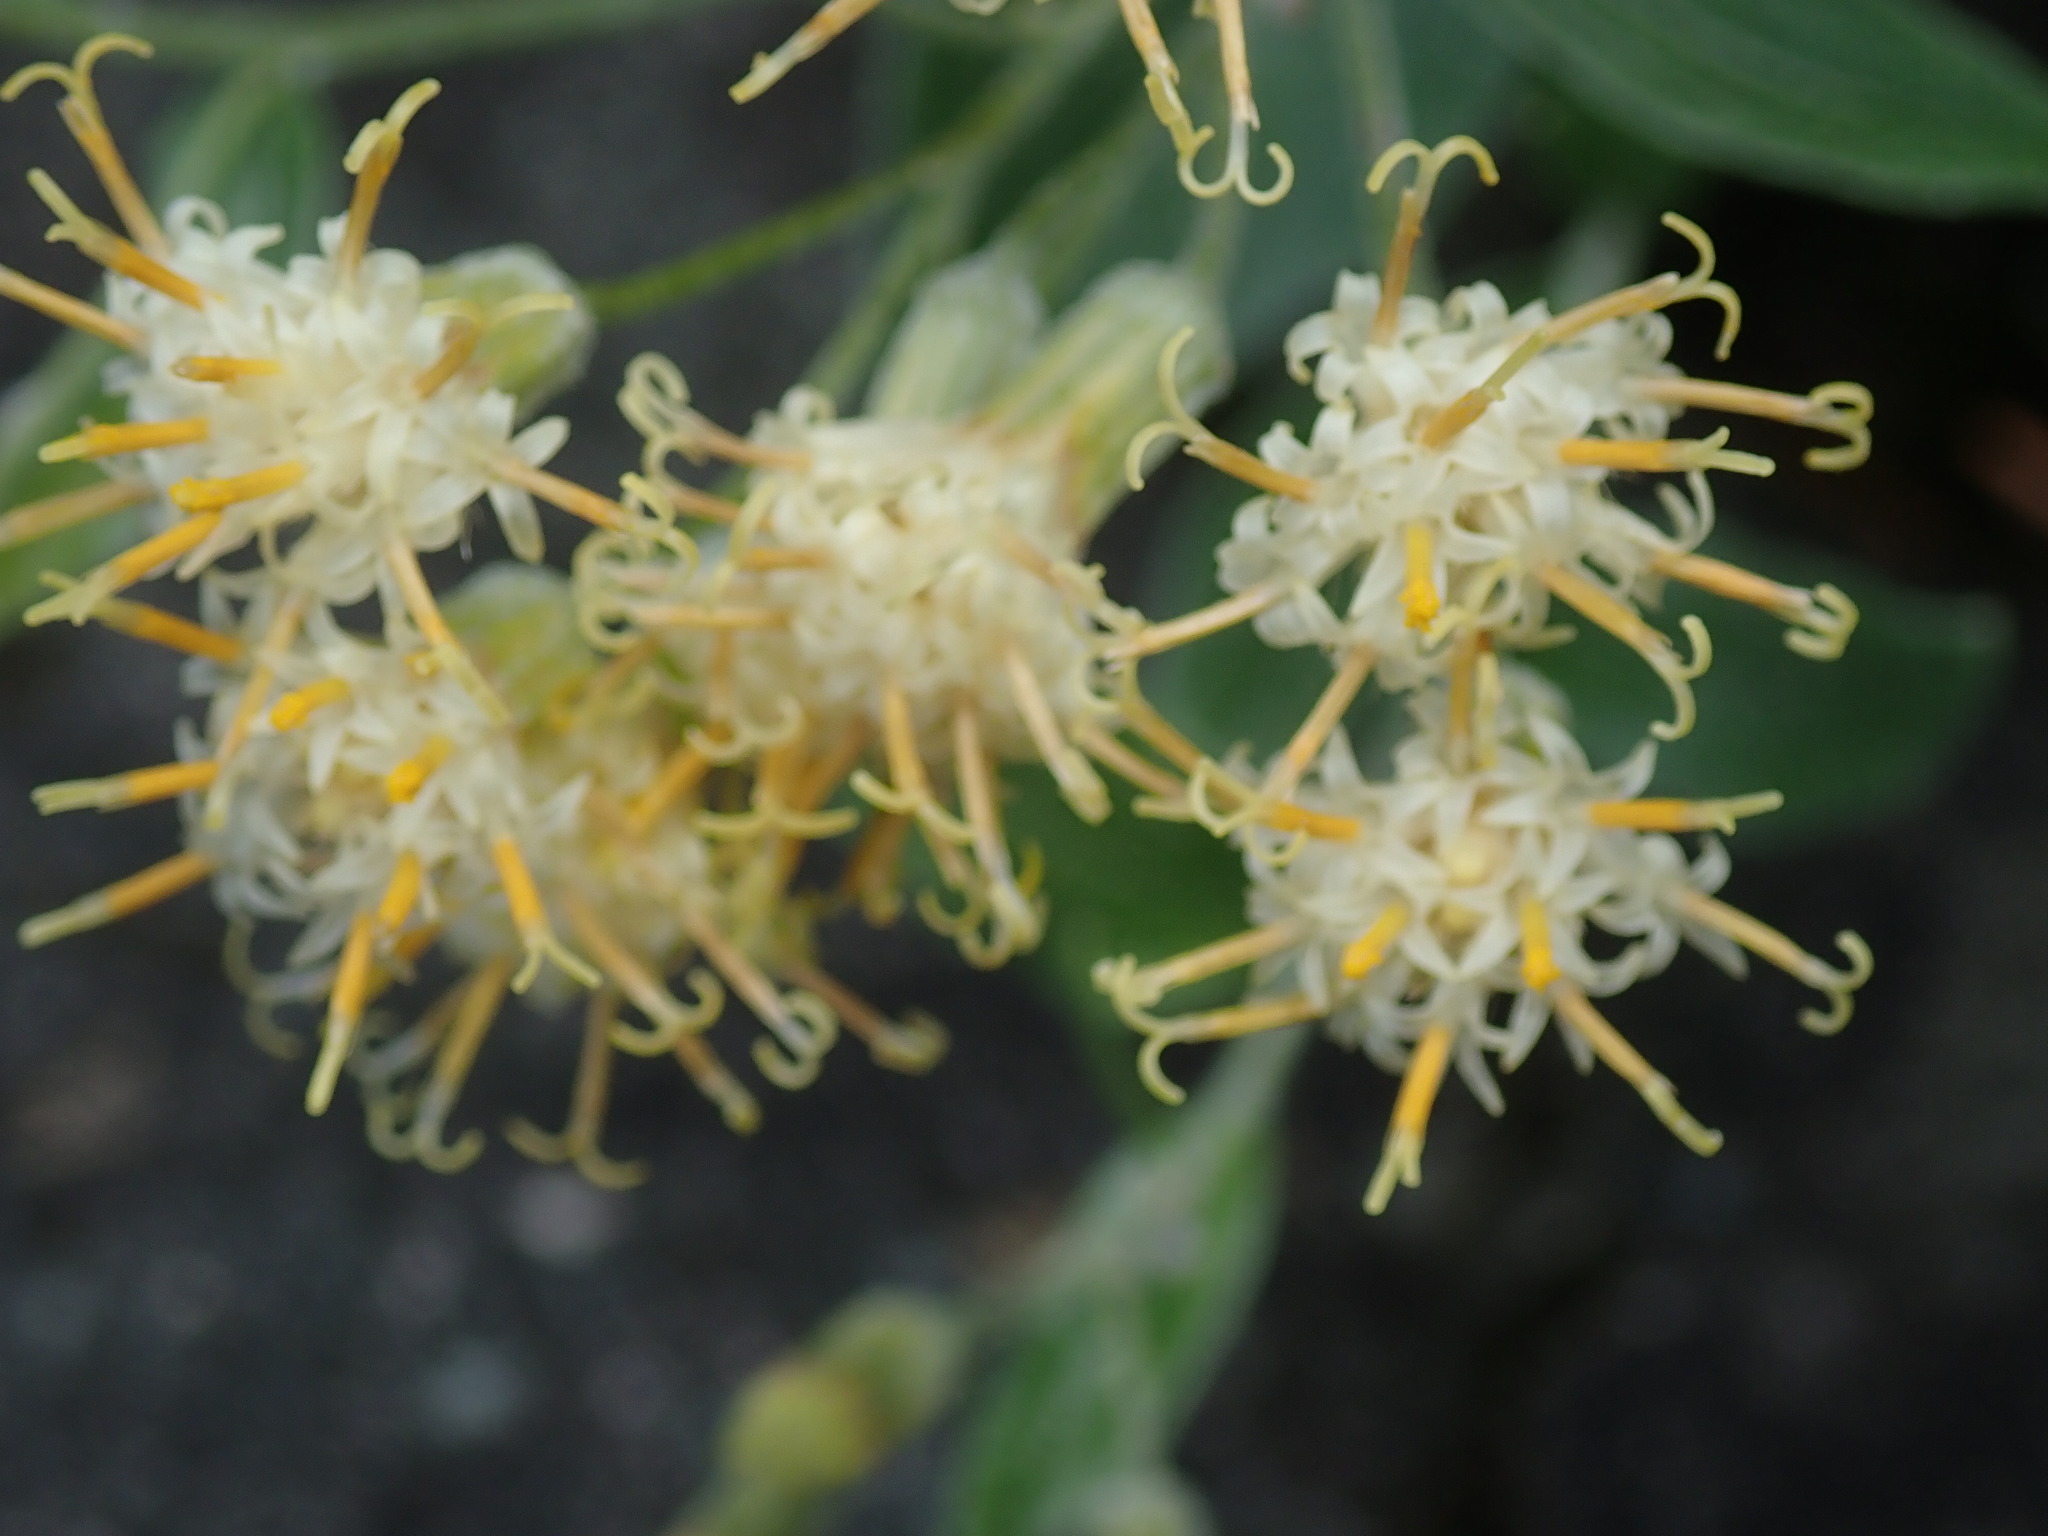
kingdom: Plantae
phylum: Tracheophyta
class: Magnoliopsida
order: Asterales
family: Asteraceae
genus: Luina
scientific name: Luina hypoleuca
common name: Little-leaved luina
